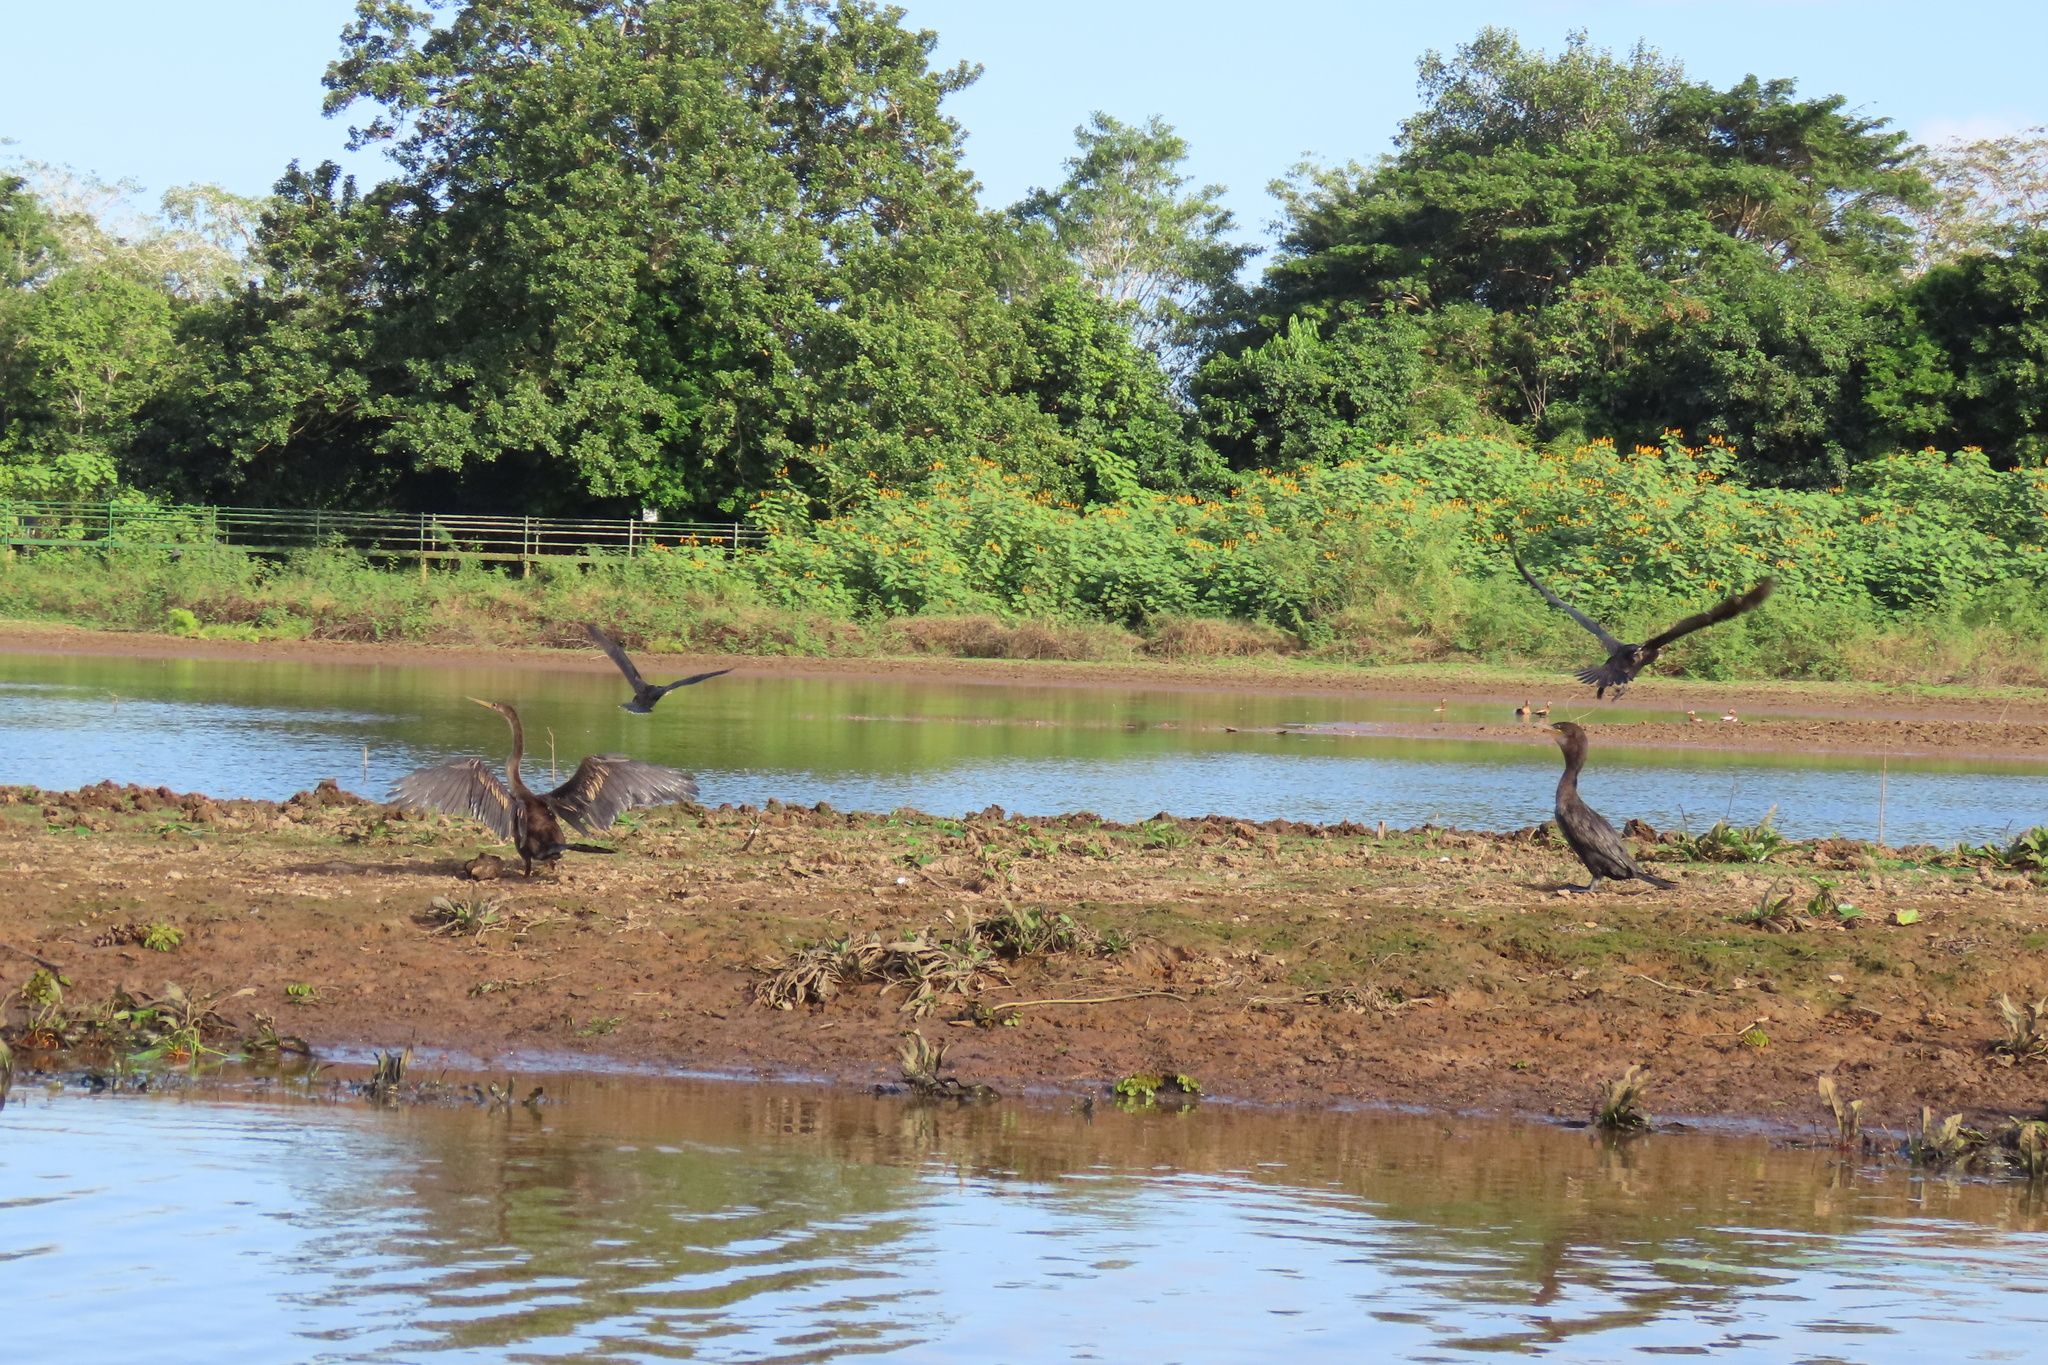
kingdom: Animalia
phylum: Chordata
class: Aves
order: Suliformes
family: Phalacrocoracidae
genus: Phalacrocorax
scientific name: Phalacrocorax brasilianus
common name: Neotropic cormorant
